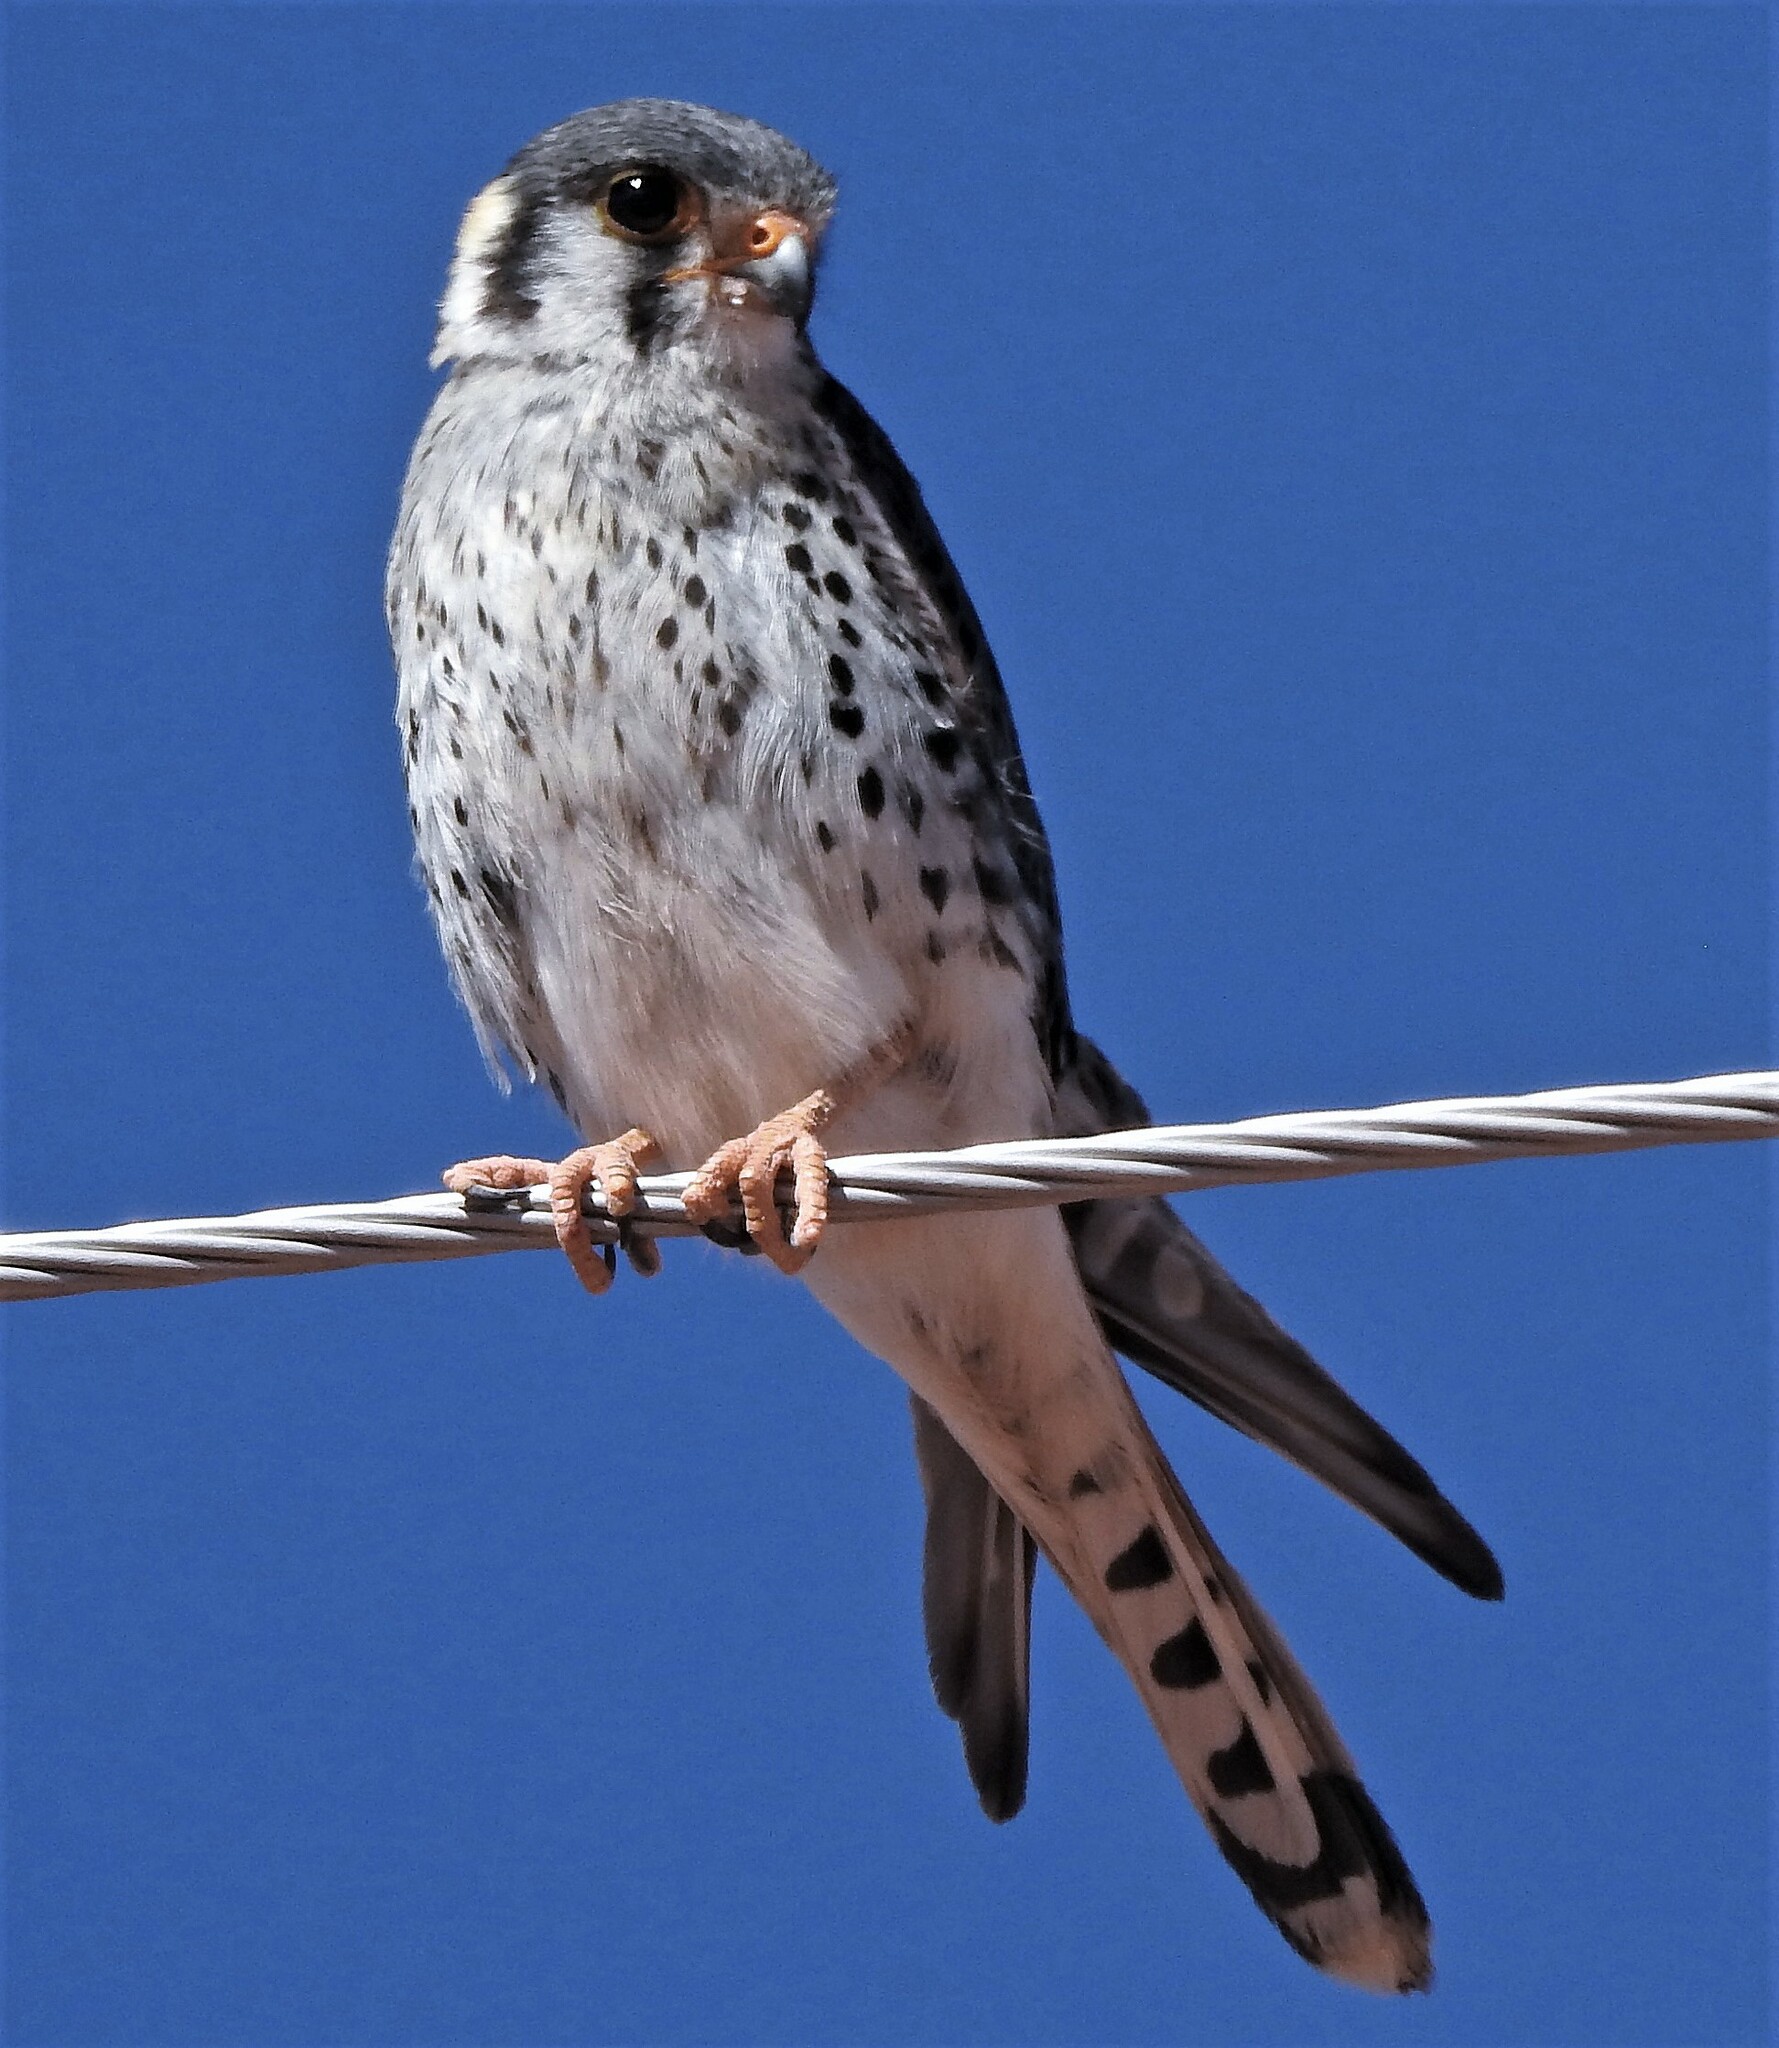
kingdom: Animalia
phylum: Chordata
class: Aves
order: Falconiformes
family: Falconidae
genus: Falco
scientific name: Falco sparverius
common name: American kestrel
